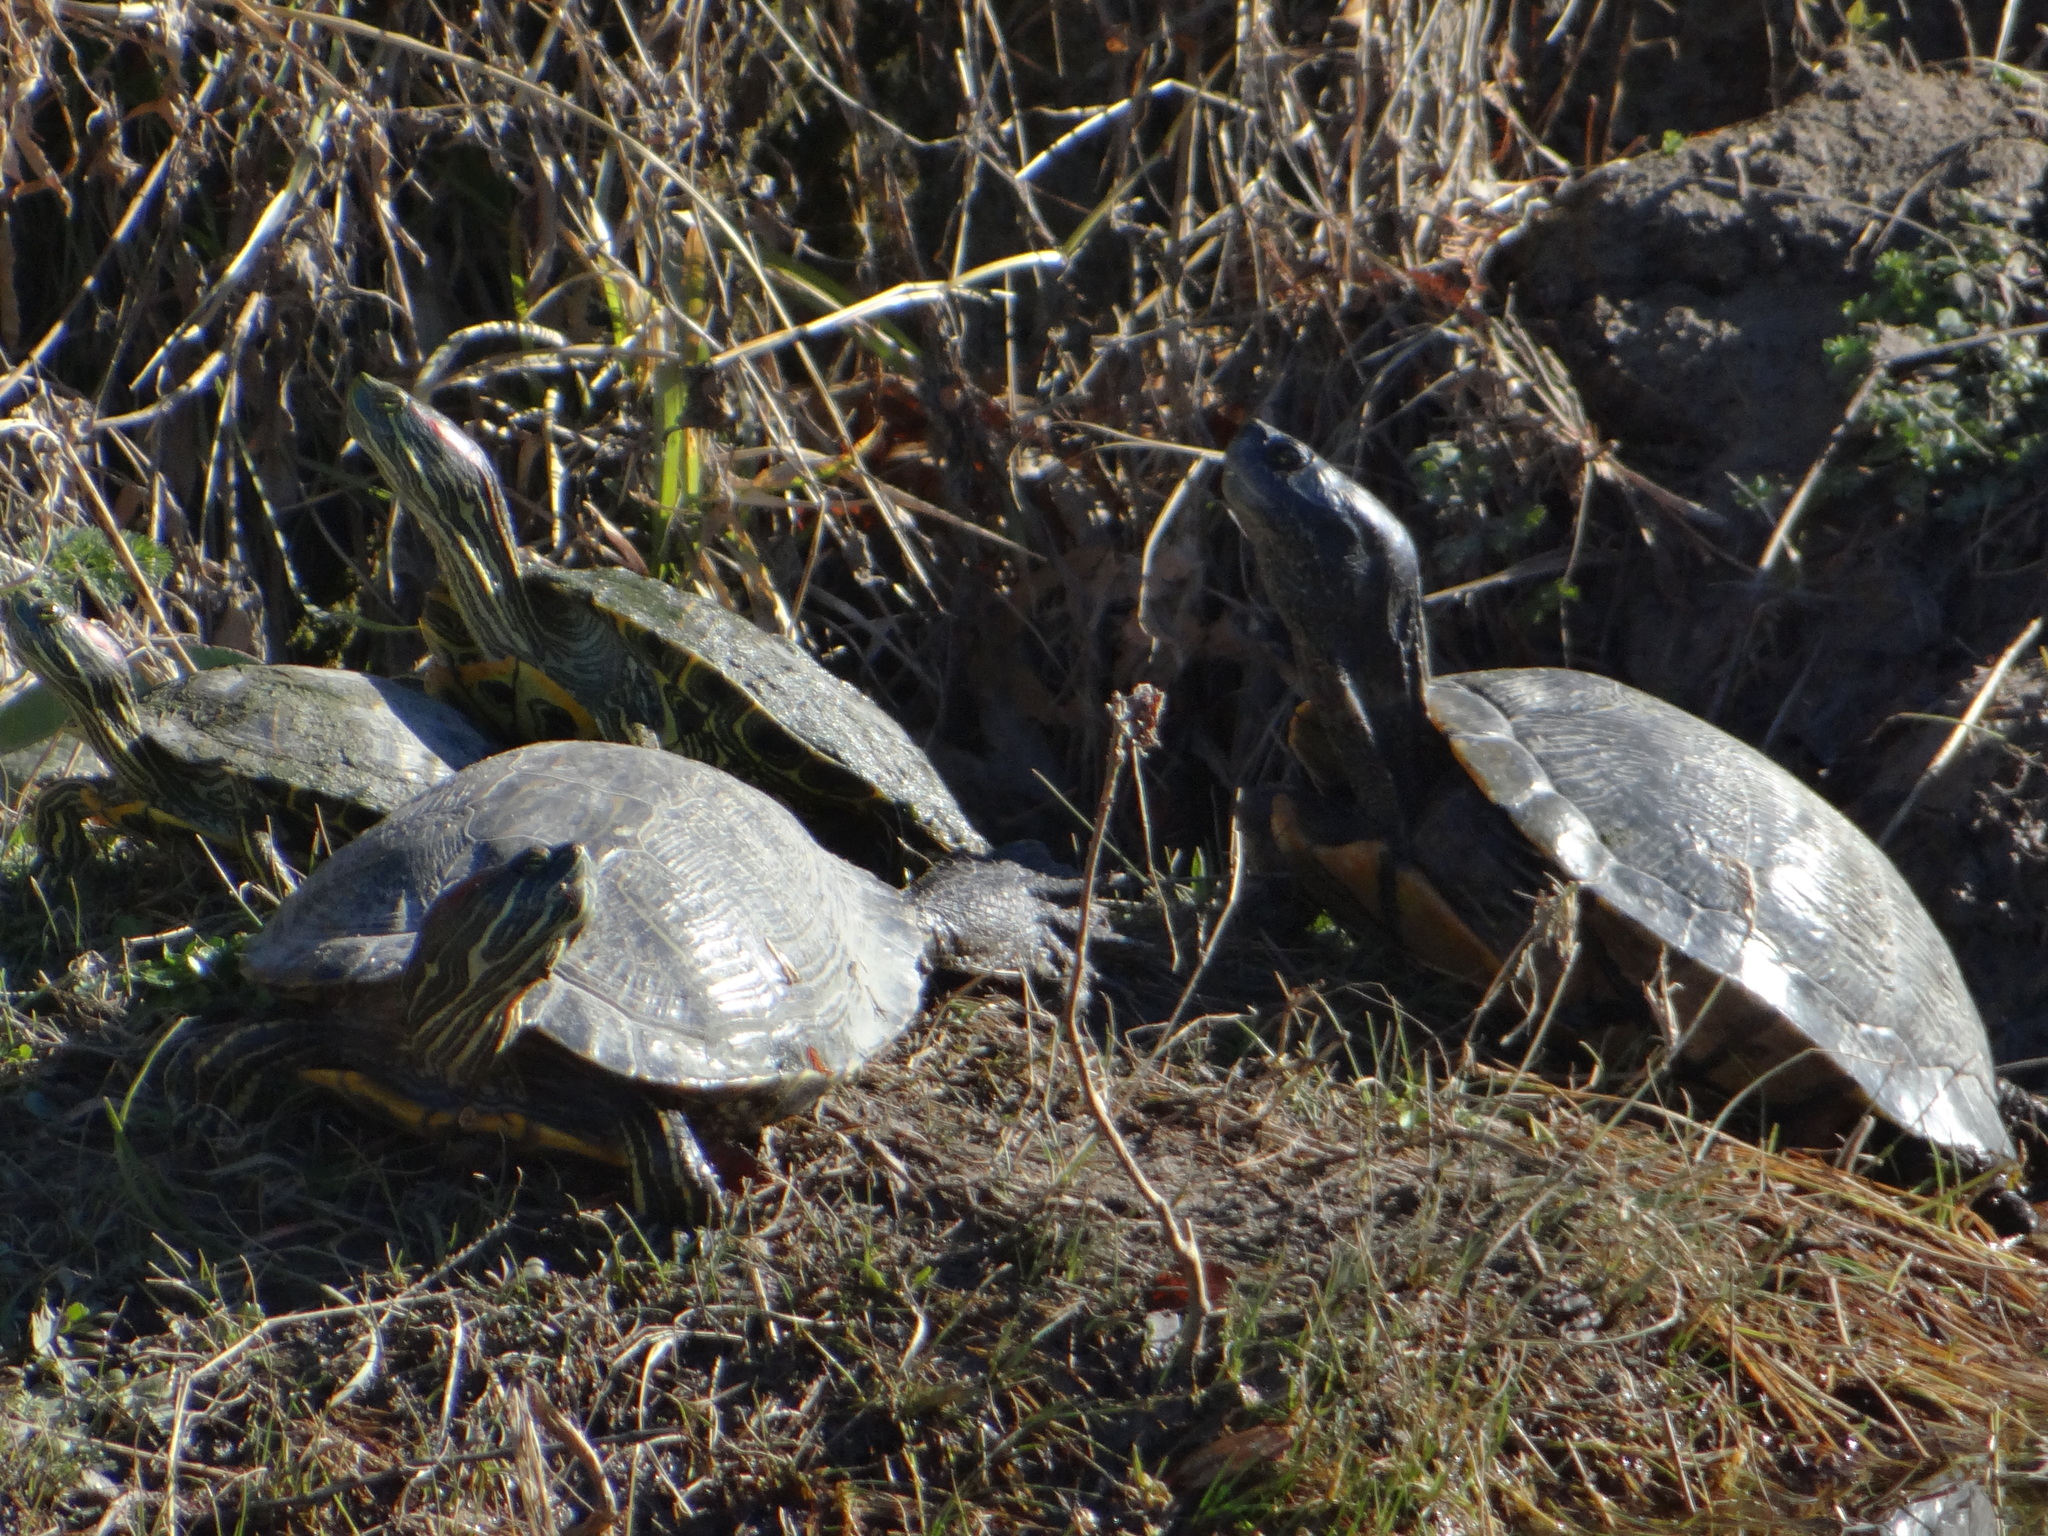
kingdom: Animalia
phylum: Chordata
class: Testudines
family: Emydidae
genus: Trachemys
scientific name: Trachemys scripta
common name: Slider
